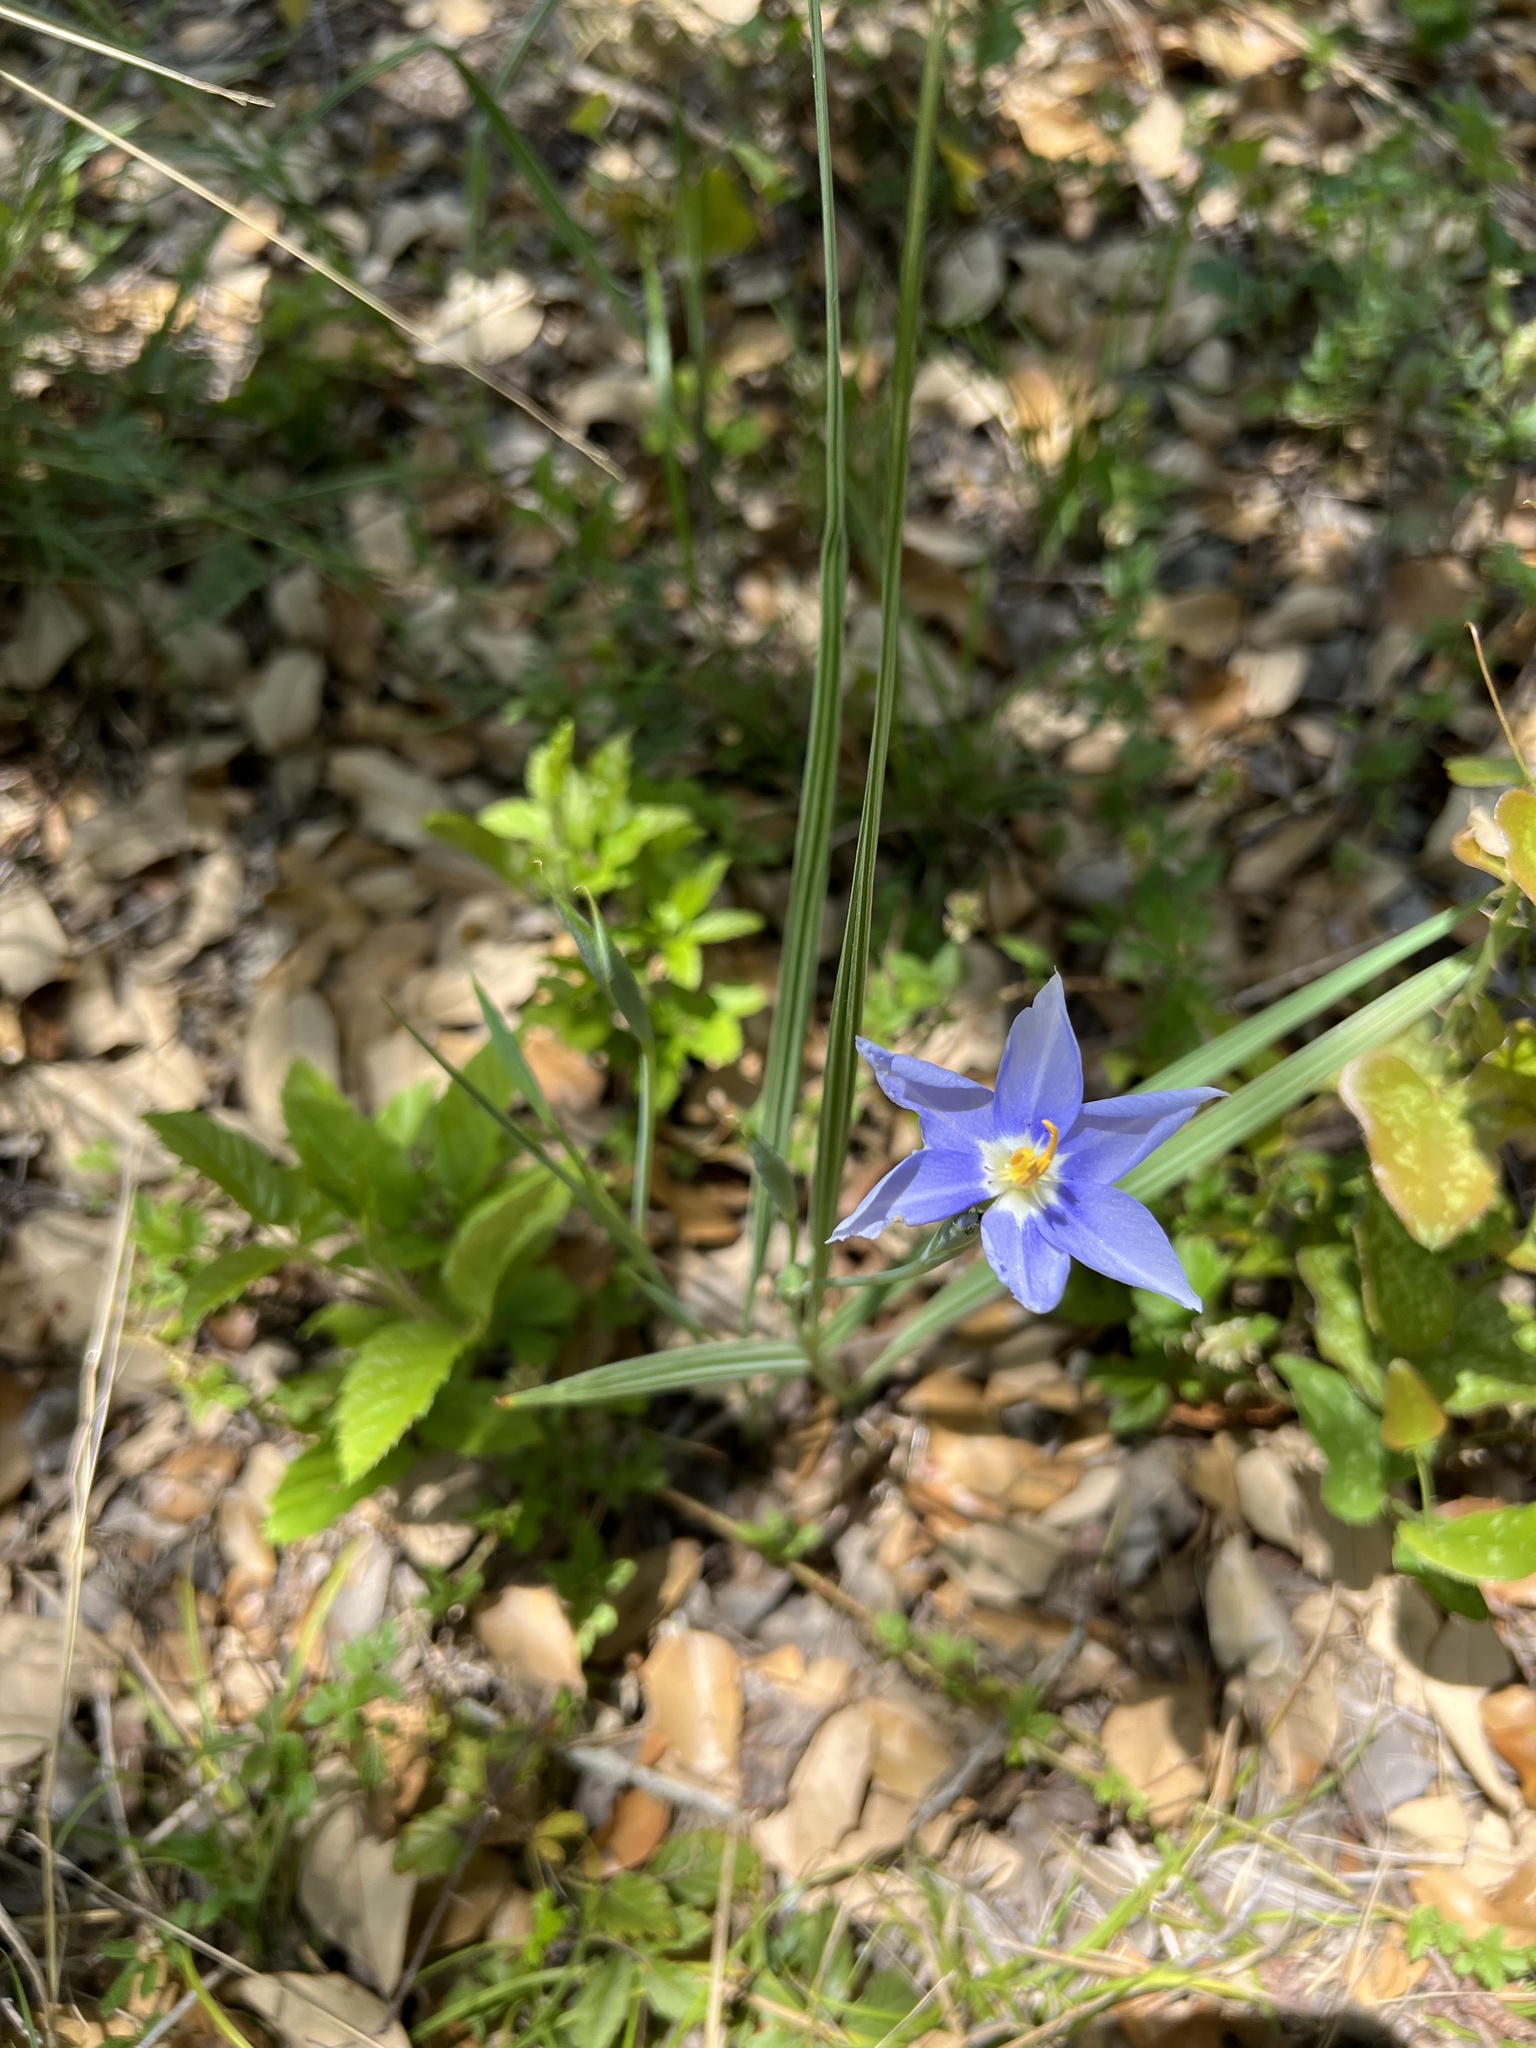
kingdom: Plantae
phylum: Tracheophyta
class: Liliopsida
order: Asparagales
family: Iridaceae
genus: Nemastylis
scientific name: Nemastylis geminiflora
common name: Prairie celestial
